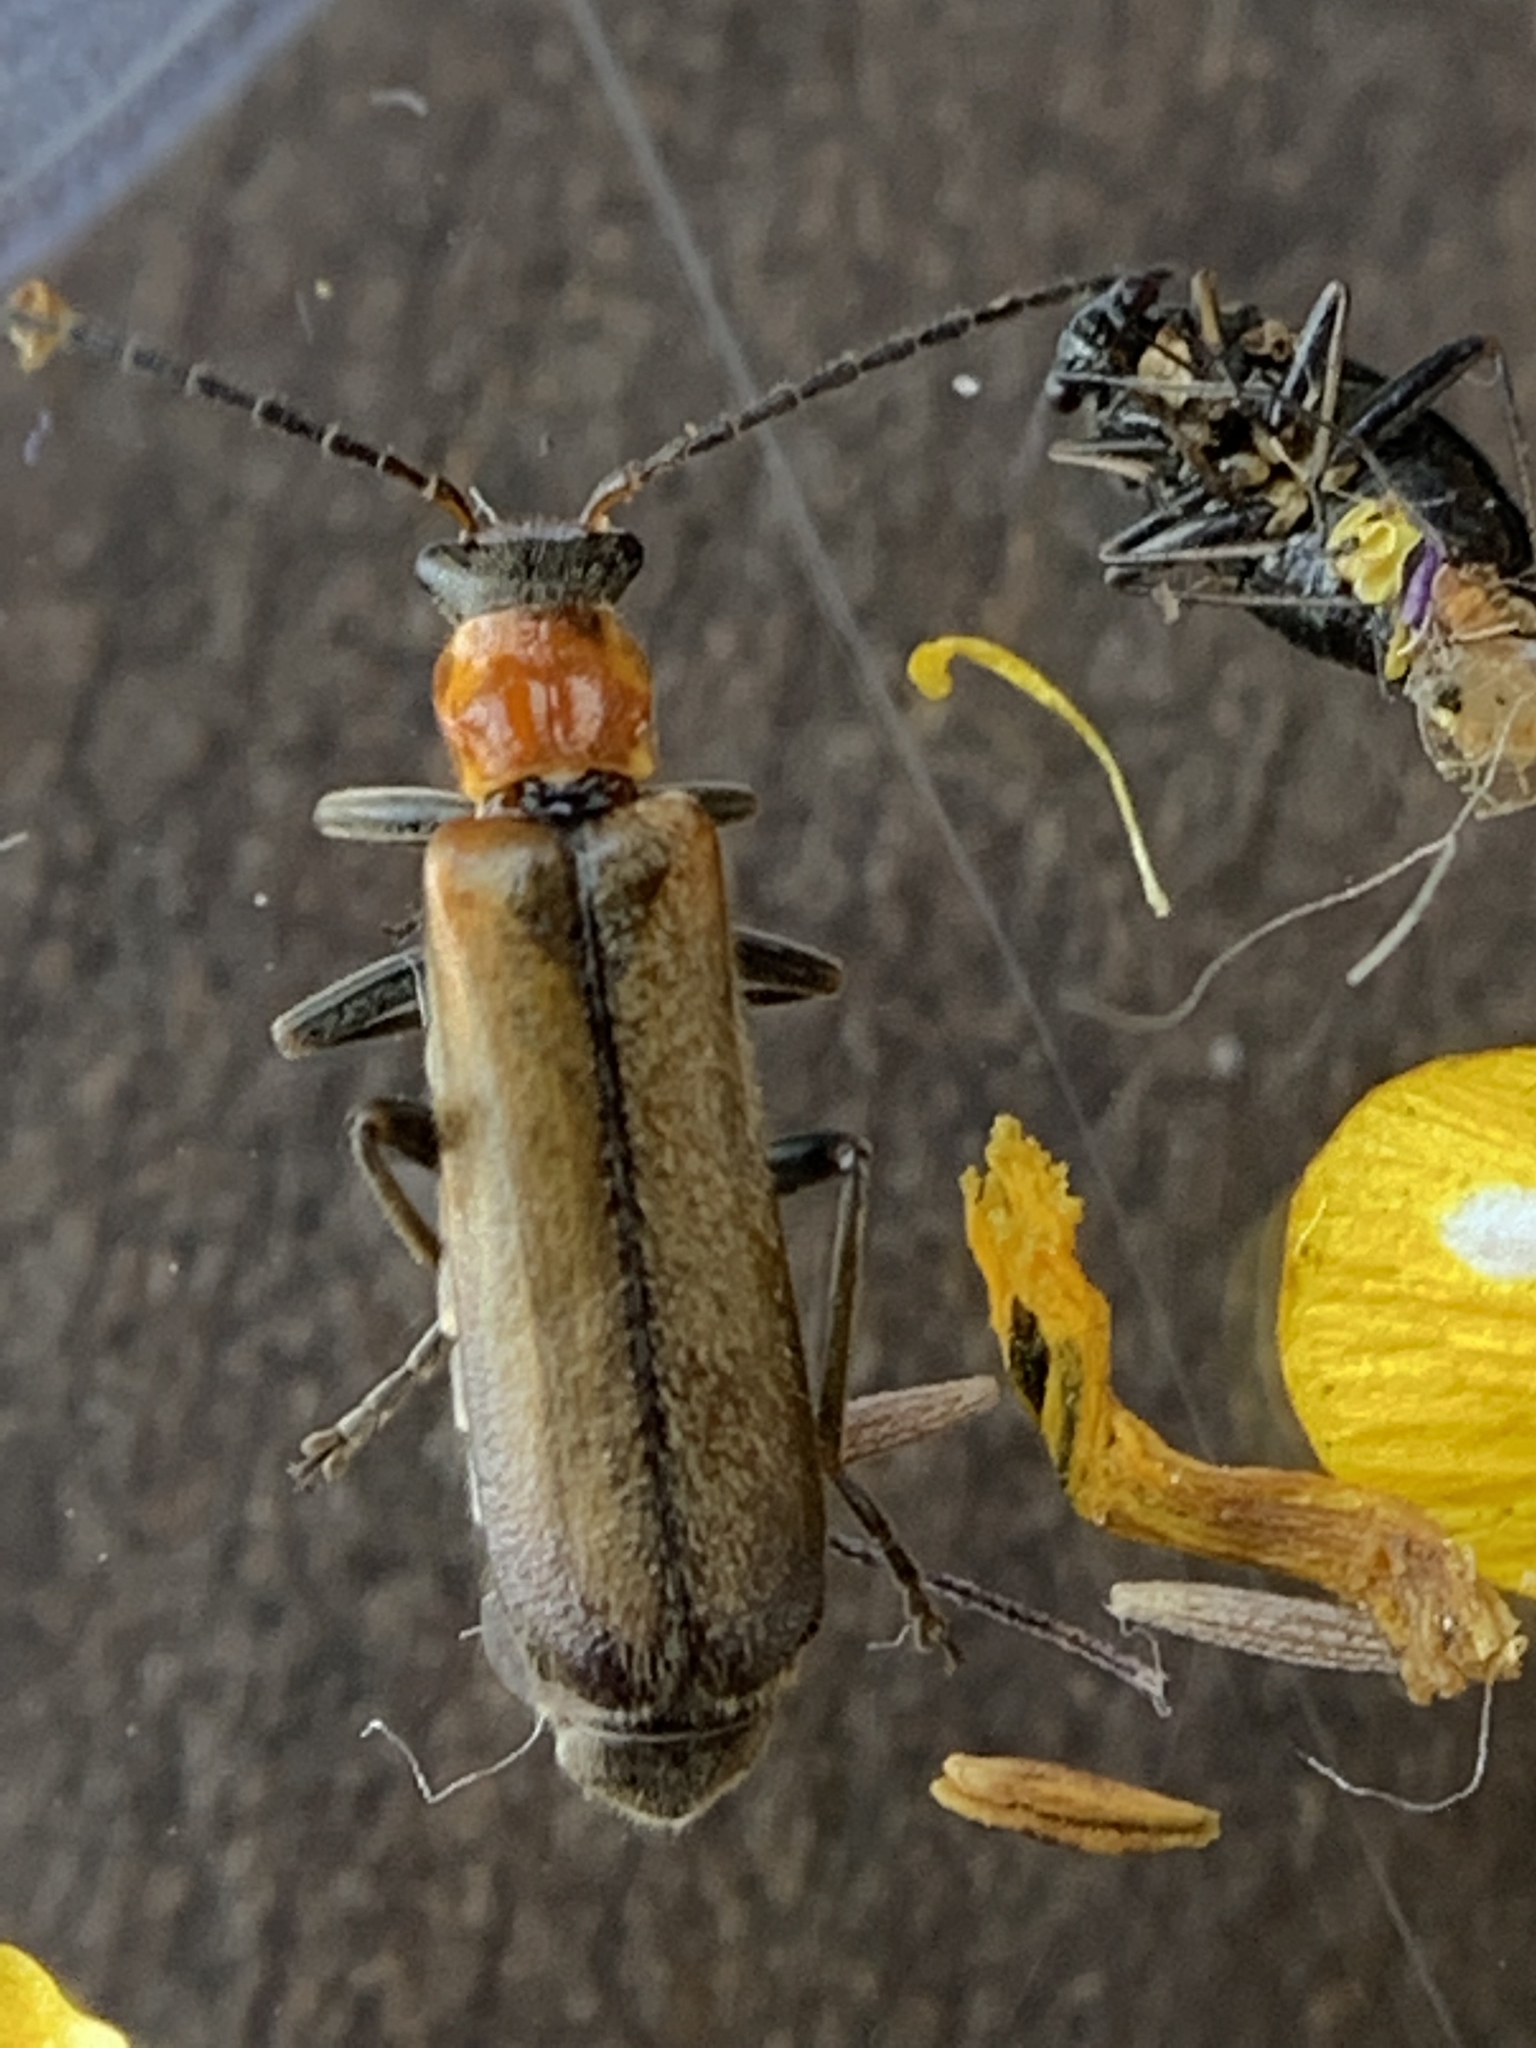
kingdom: Animalia
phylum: Arthropoda
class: Insecta
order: Coleoptera
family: Cantharidae
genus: Dichelotarsus
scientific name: Dichelotarsus cavicollis
